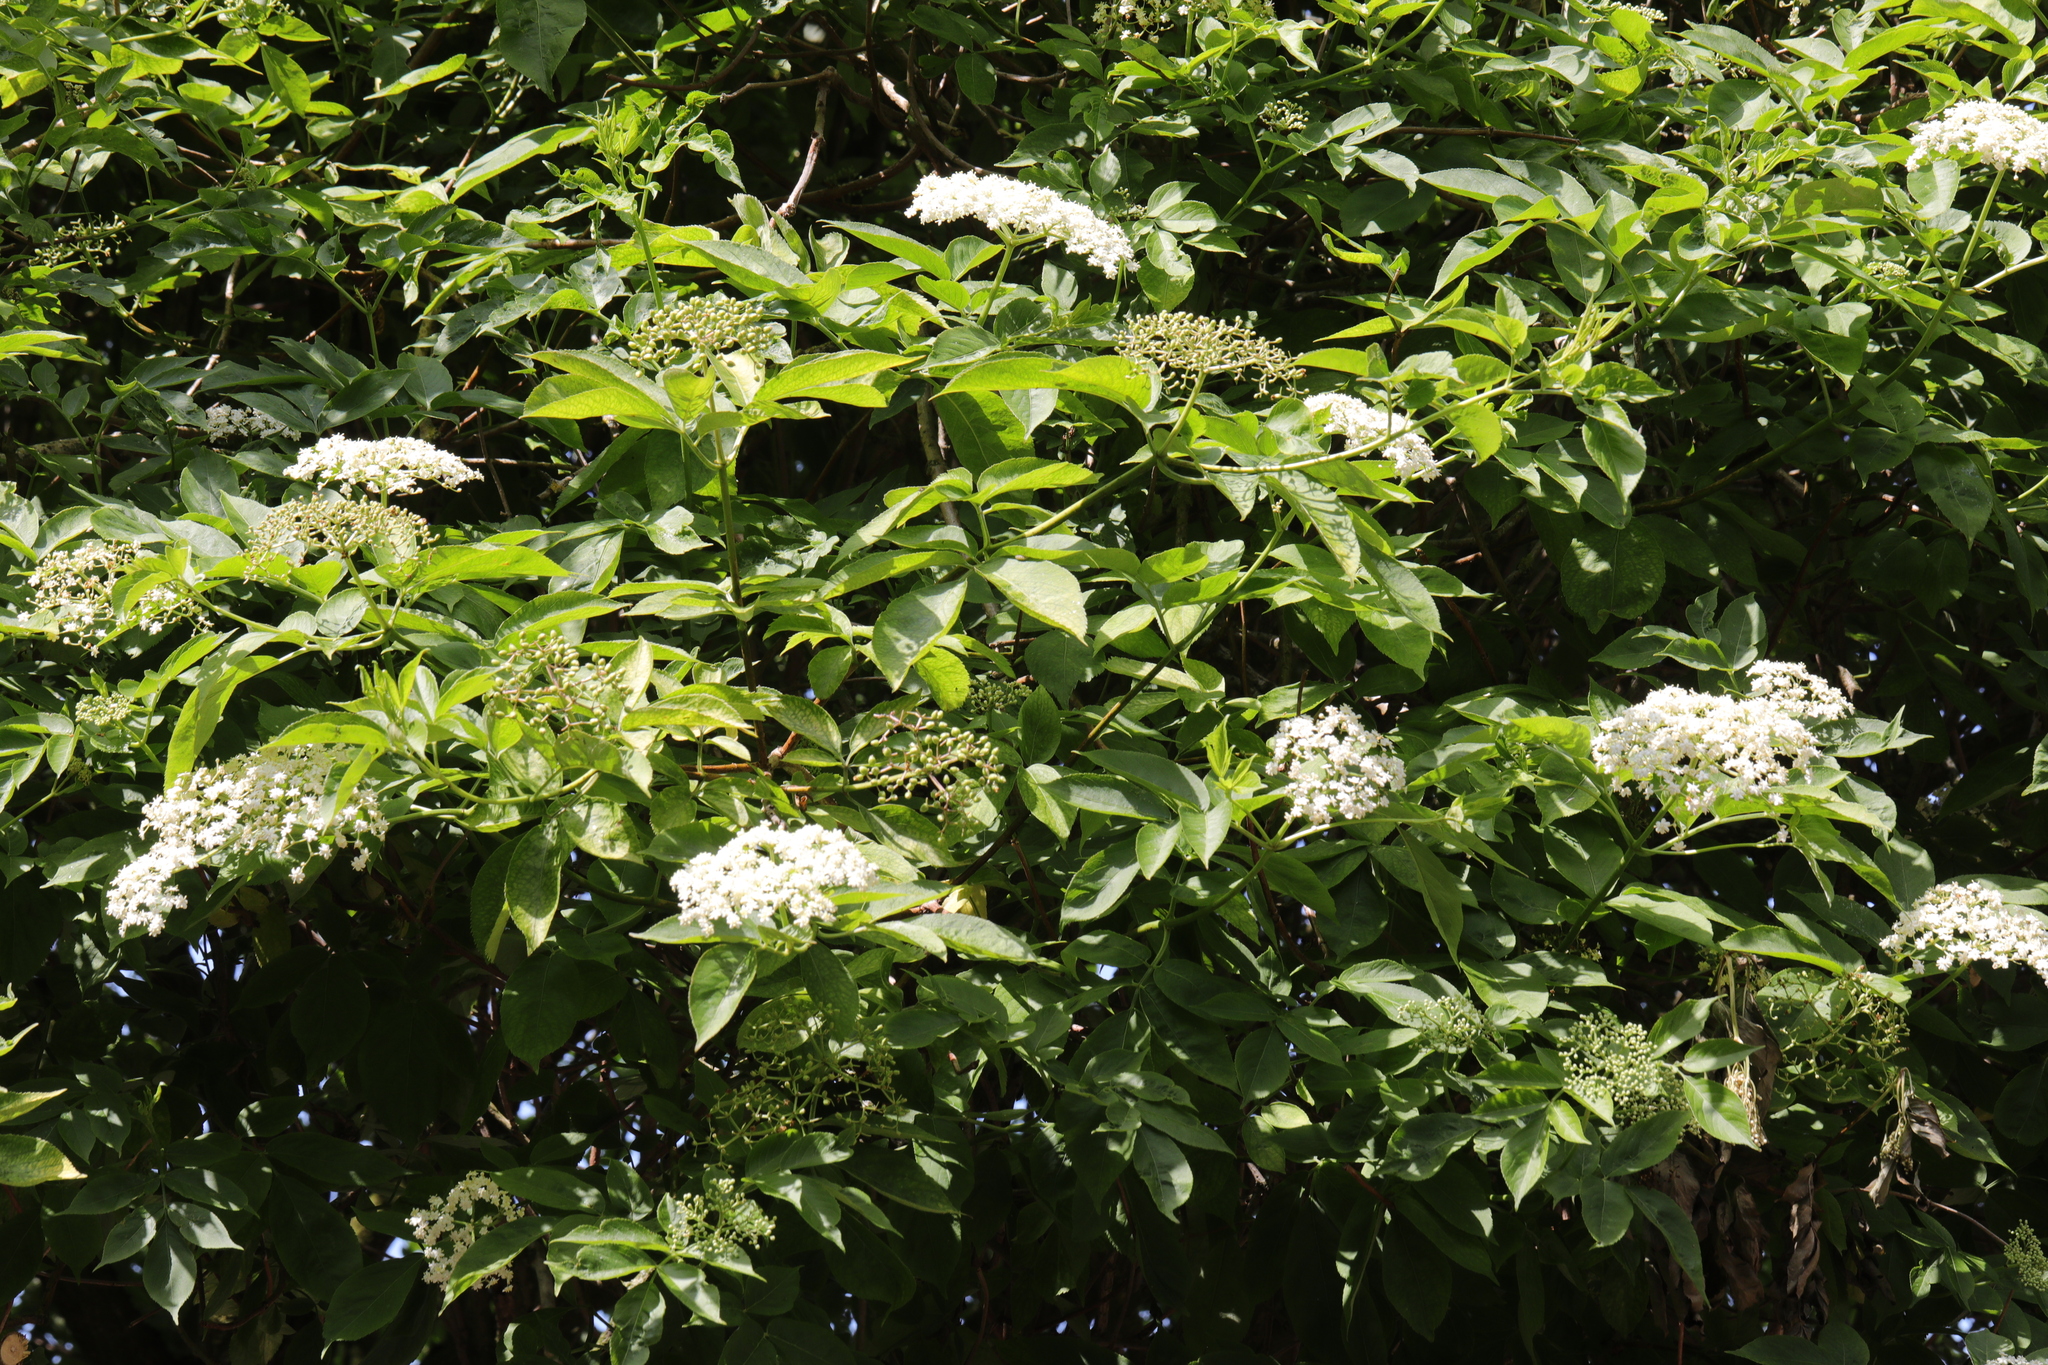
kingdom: Plantae
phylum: Tracheophyta
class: Magnoliopsida
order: Dipsacales
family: Viburnaceae
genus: Sambucus
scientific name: Sambucus nigra
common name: Elder
